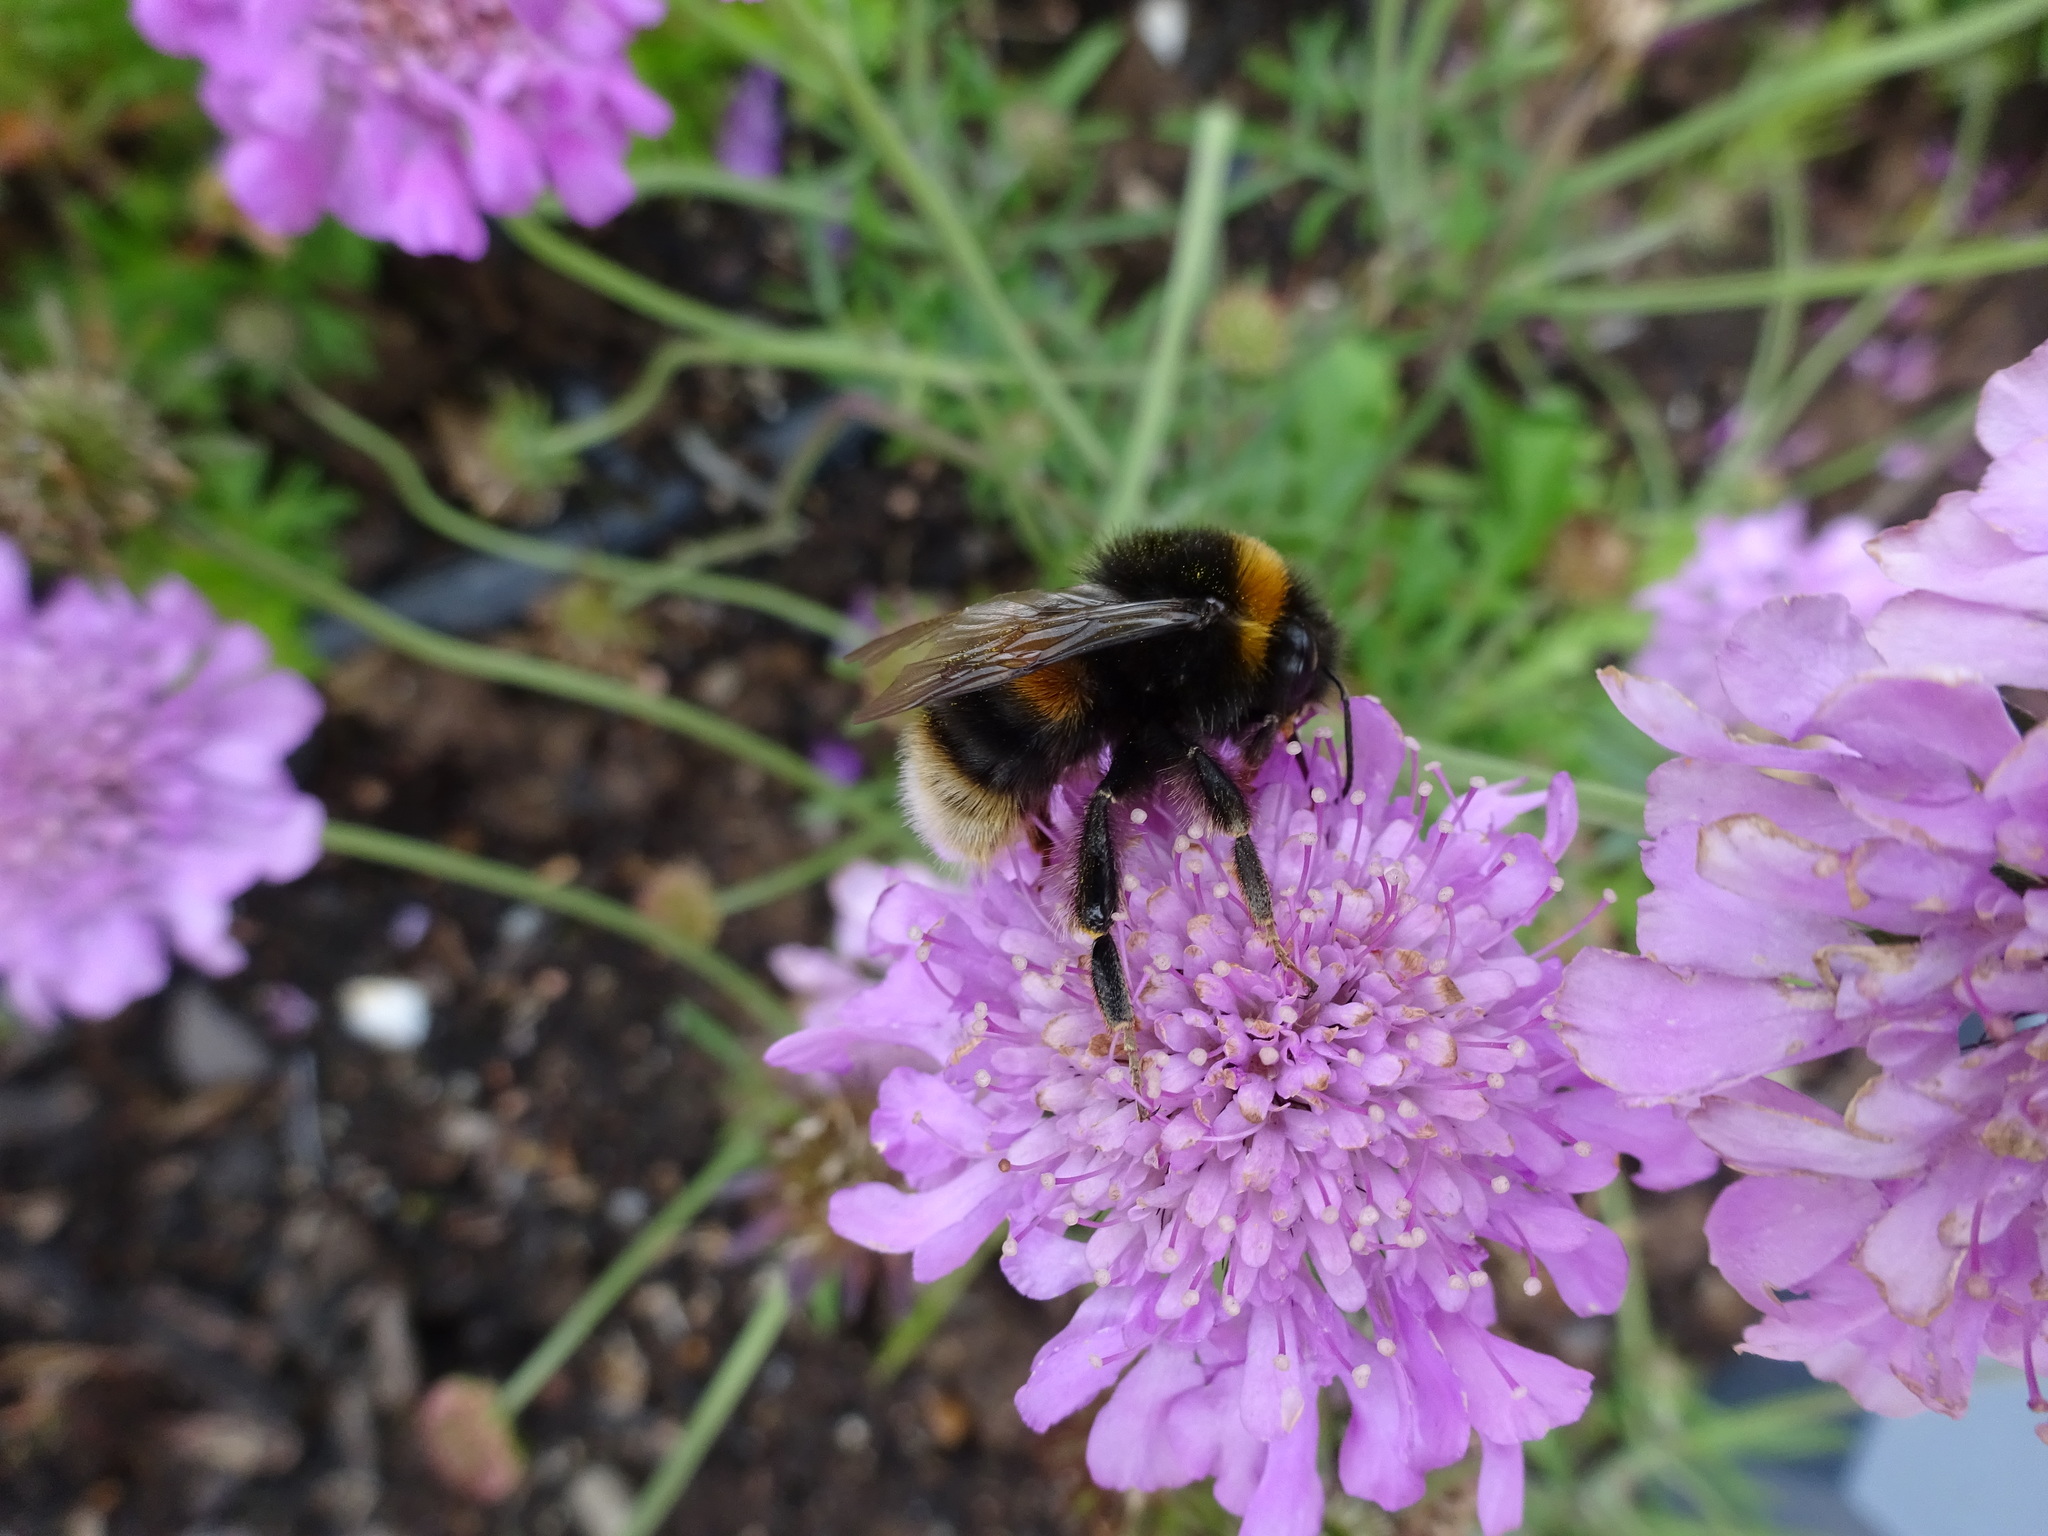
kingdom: Animalia
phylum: Arthropoda
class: Insecta
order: Hymenoptera
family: Apidae
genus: Bombus
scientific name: Bombus terrestris
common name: Buff-tailed bumblebee
